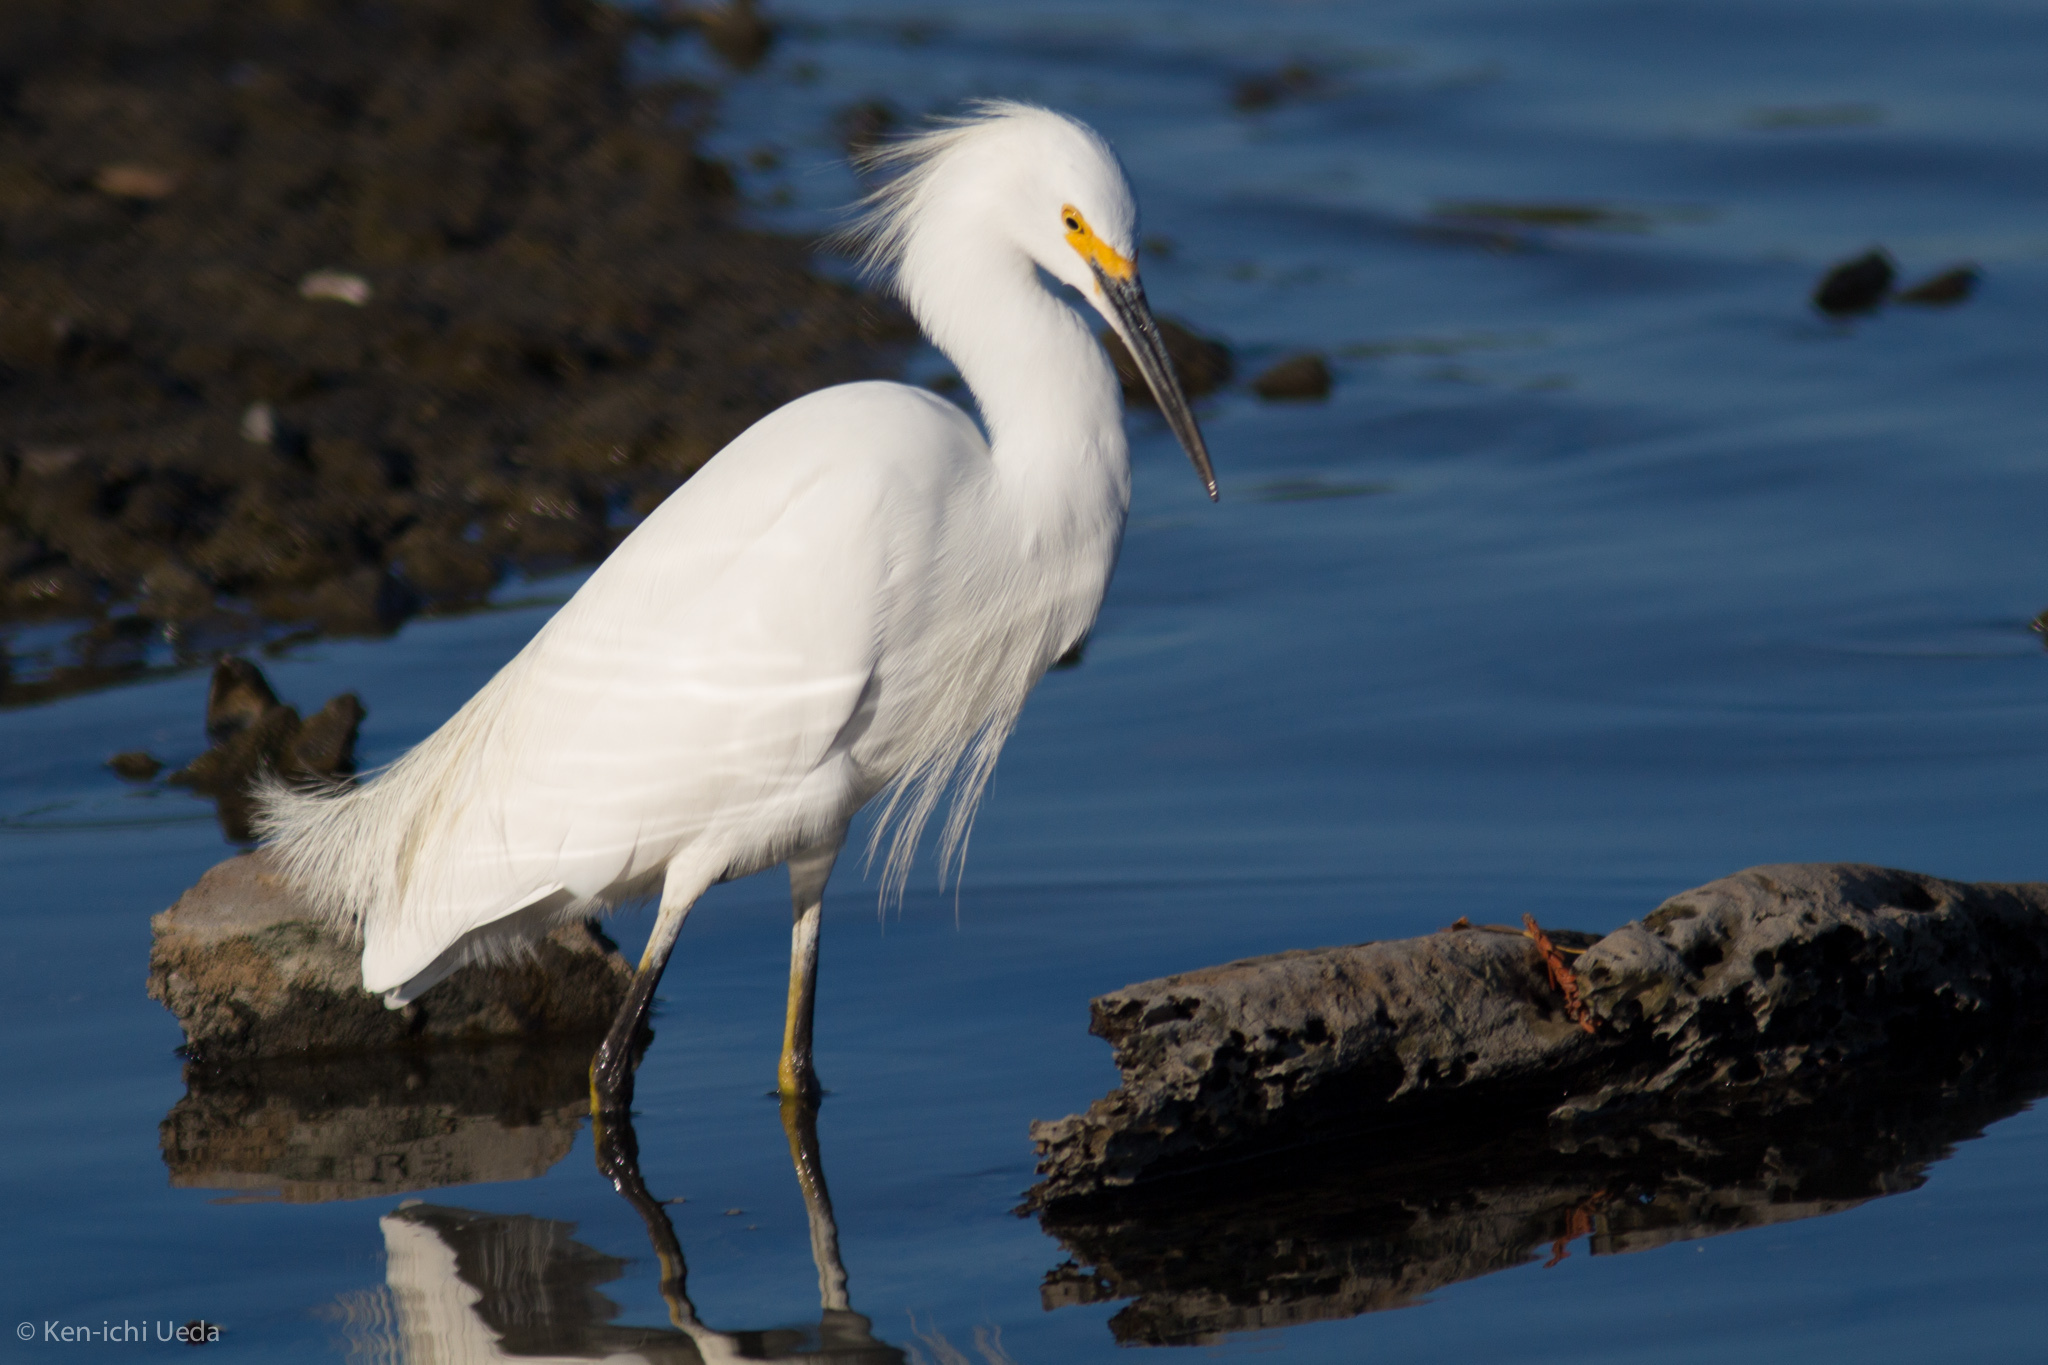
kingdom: Animalia
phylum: Chordata
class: Aves
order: Pelecaniformes
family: Ardeidae
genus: Egretta
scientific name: Egretta thula
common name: Snowy egret
